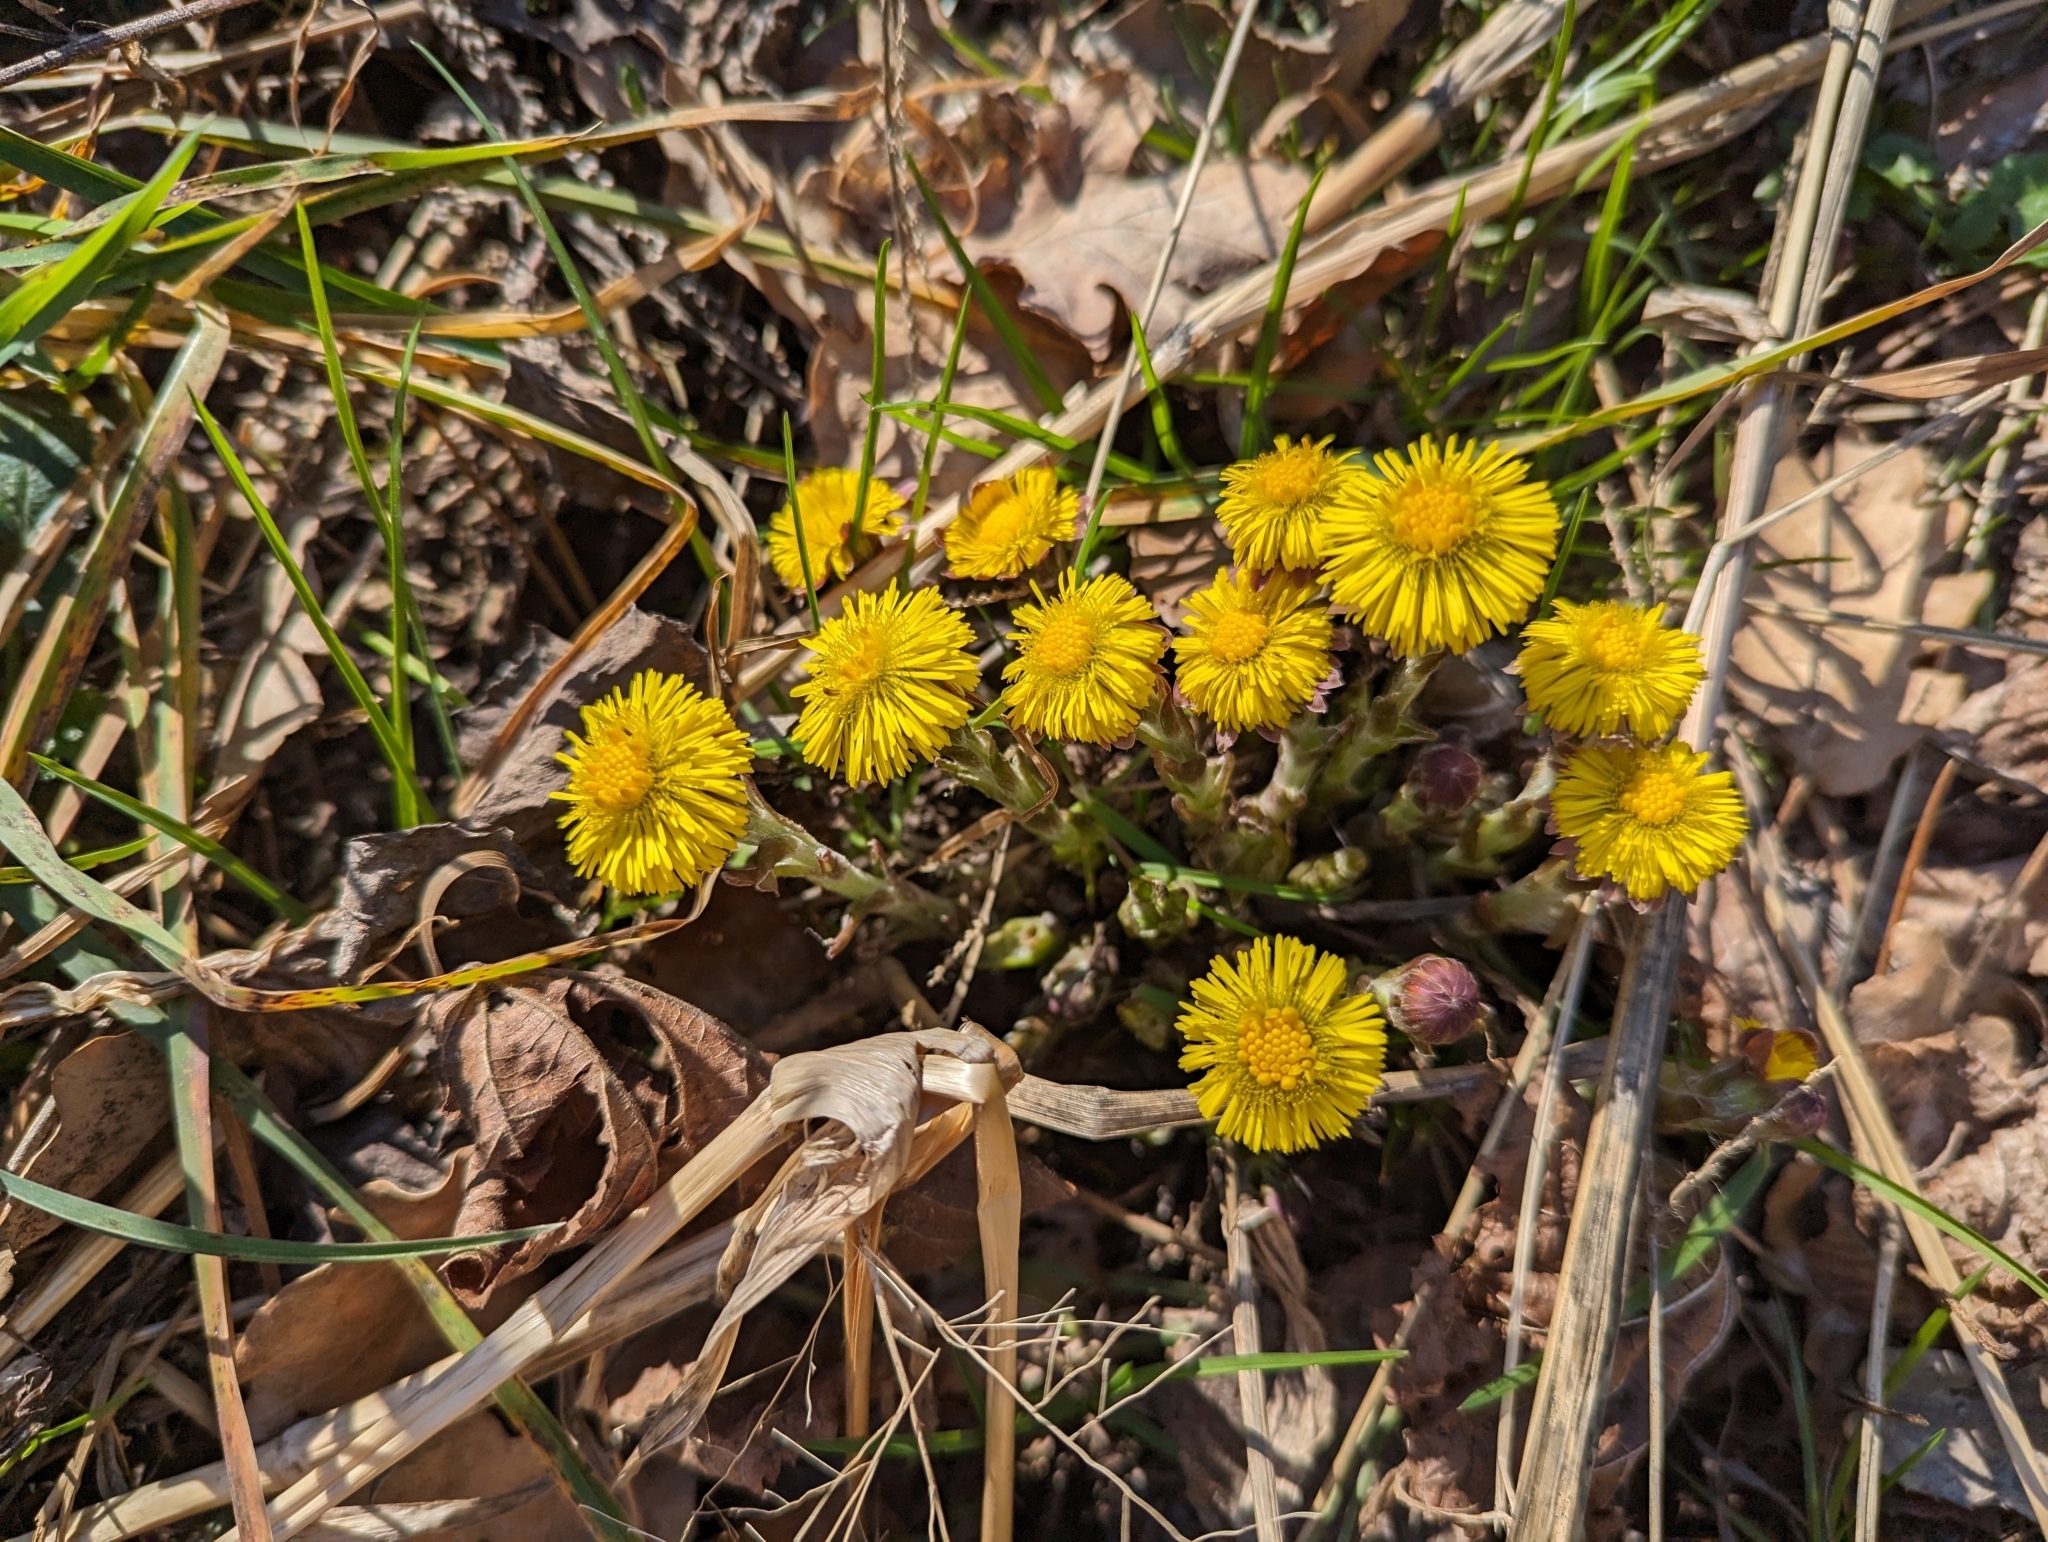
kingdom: Plantae
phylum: Tracheophyta
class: Magnoliopsida
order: Asterales
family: Asteraceae
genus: Tussilago
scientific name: Tussilago farfara
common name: Coltsfoot
